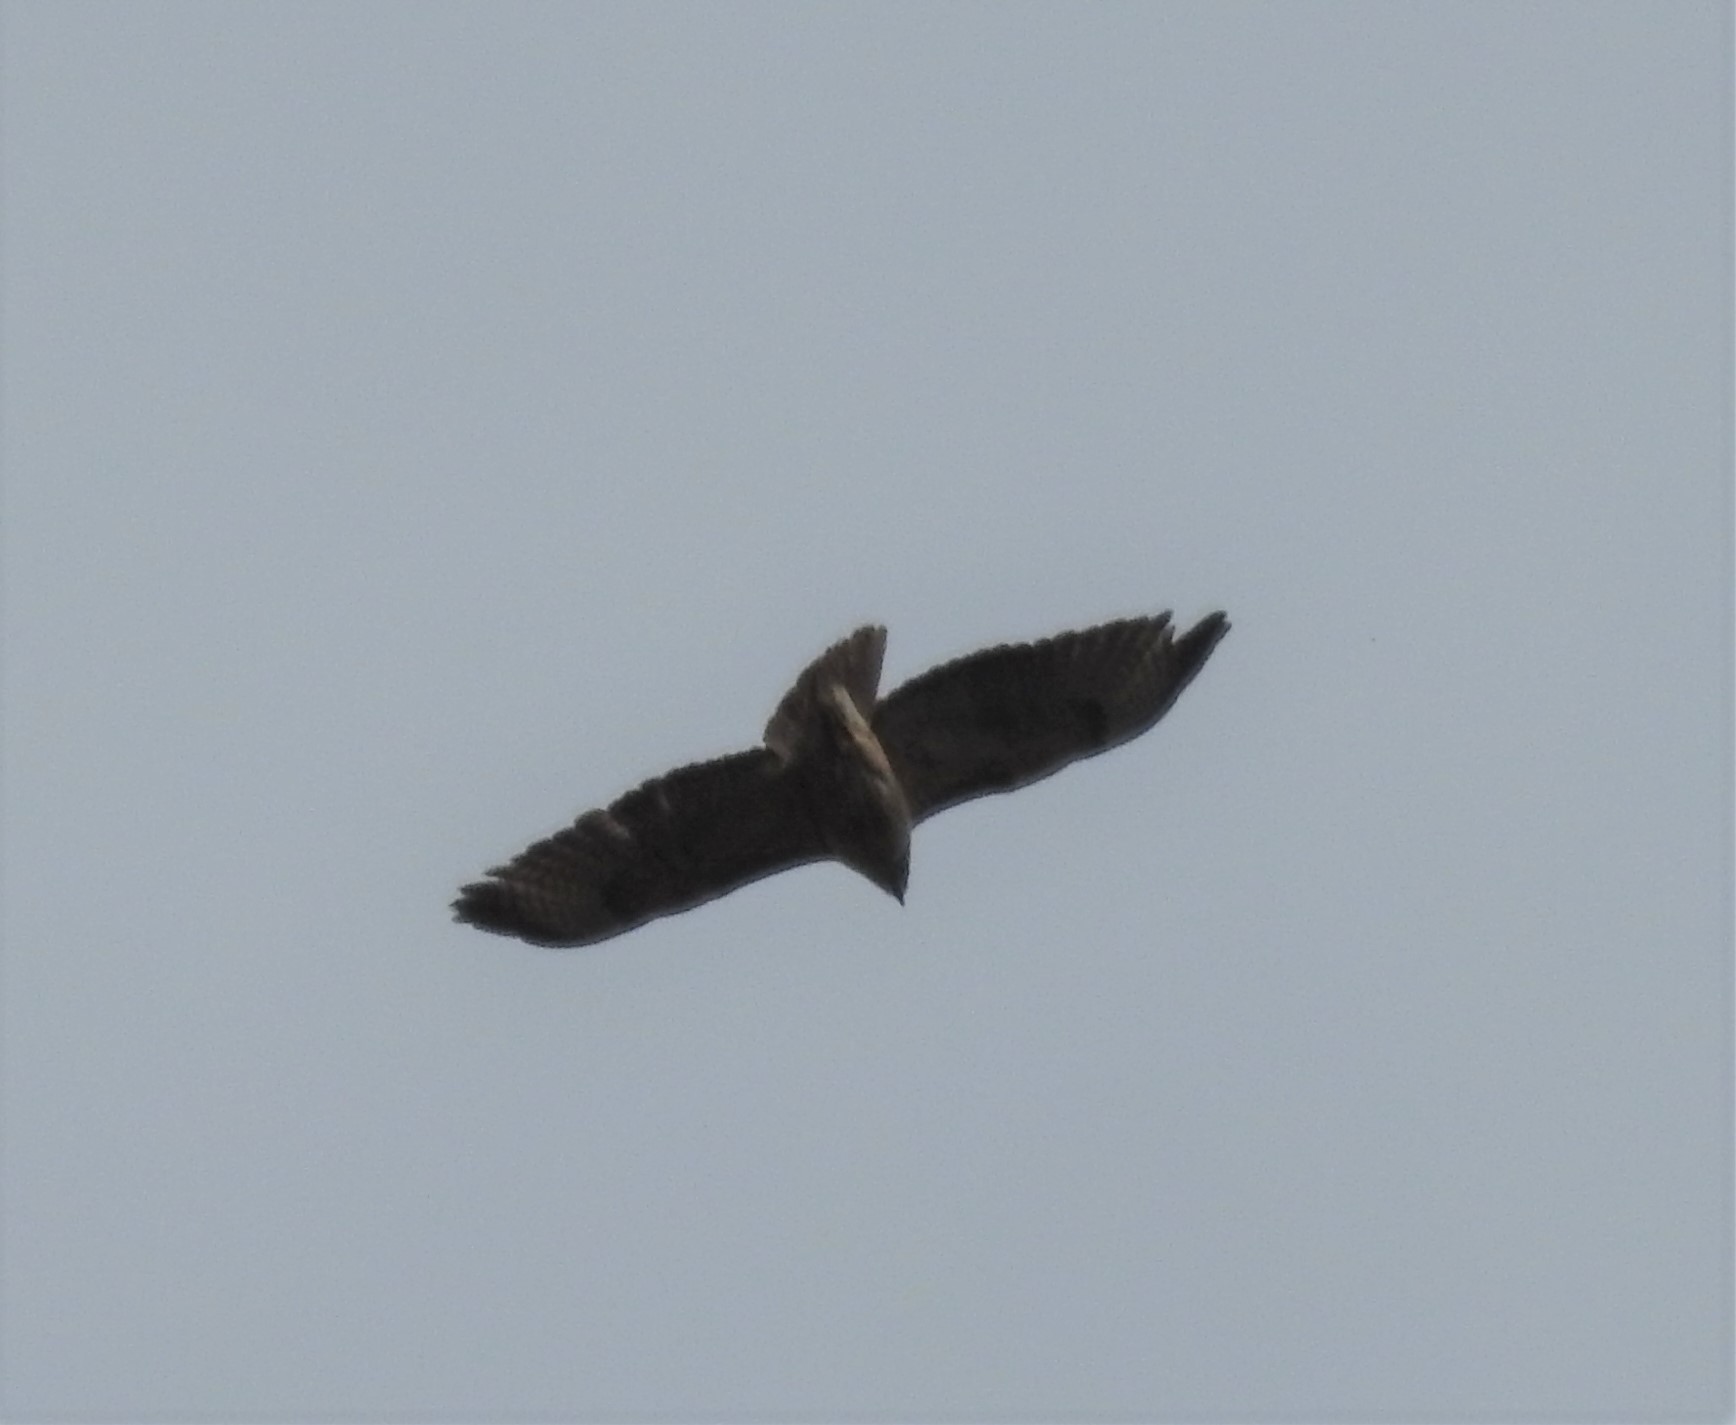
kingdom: Animalia
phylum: Chordata
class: Aves
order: Accipitriformes
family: Accipitridae
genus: Buteo
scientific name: Buteo jamaicensis
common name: Red-tailed hawk
